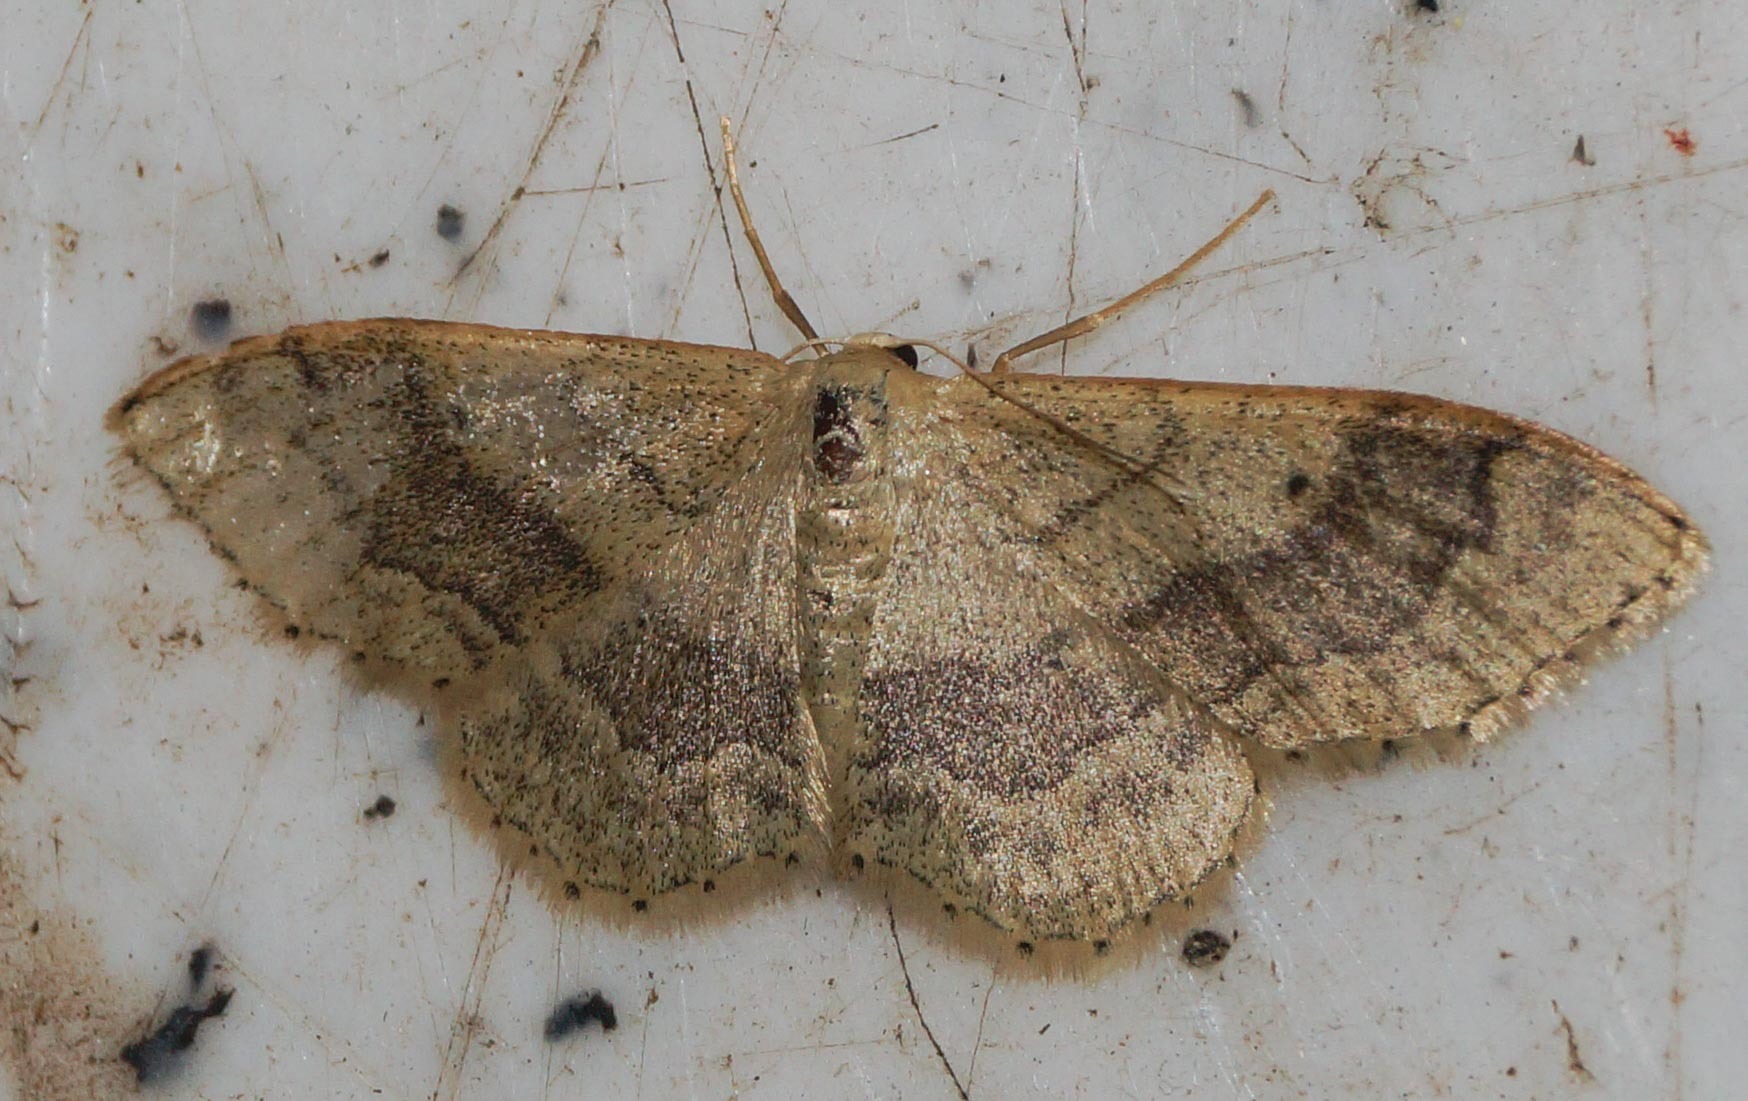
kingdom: Animalia
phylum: Arthropoda
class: Insecta
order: Lepidoptera
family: Geometridae
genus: Idaea
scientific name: Idaea aversata
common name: Riband wave
